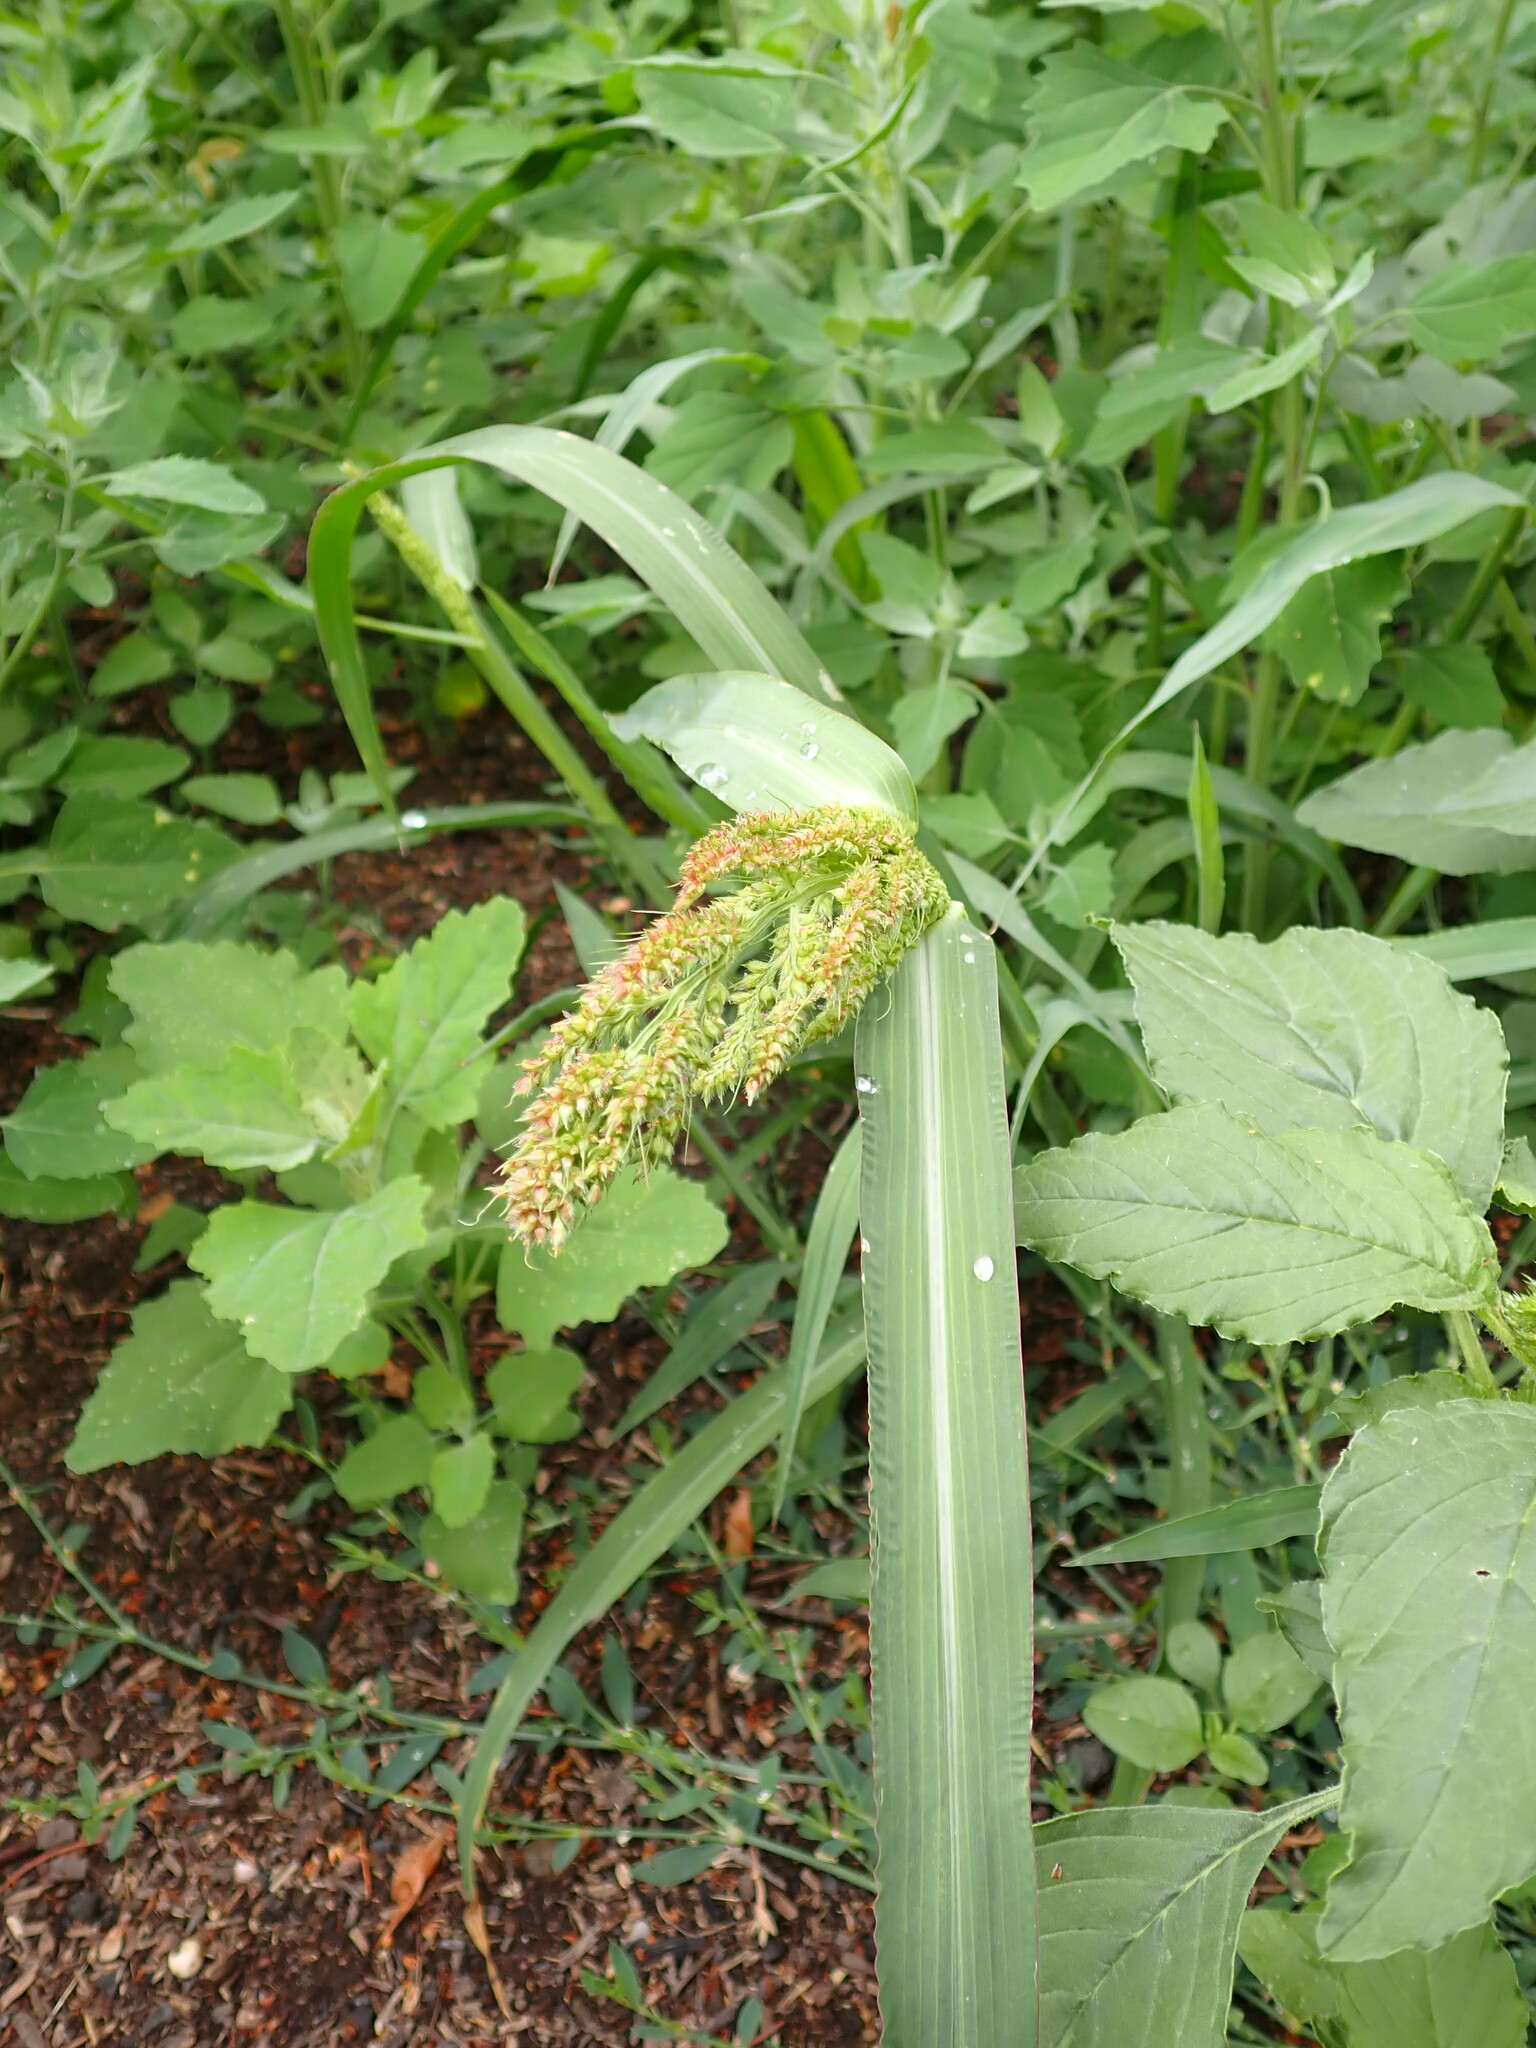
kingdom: Plantae
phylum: Tracheophyta
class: Liliopsida
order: Poales
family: Poaceae
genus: Echinochloa
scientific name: Echinochloa crus-galli
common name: Cockspur
